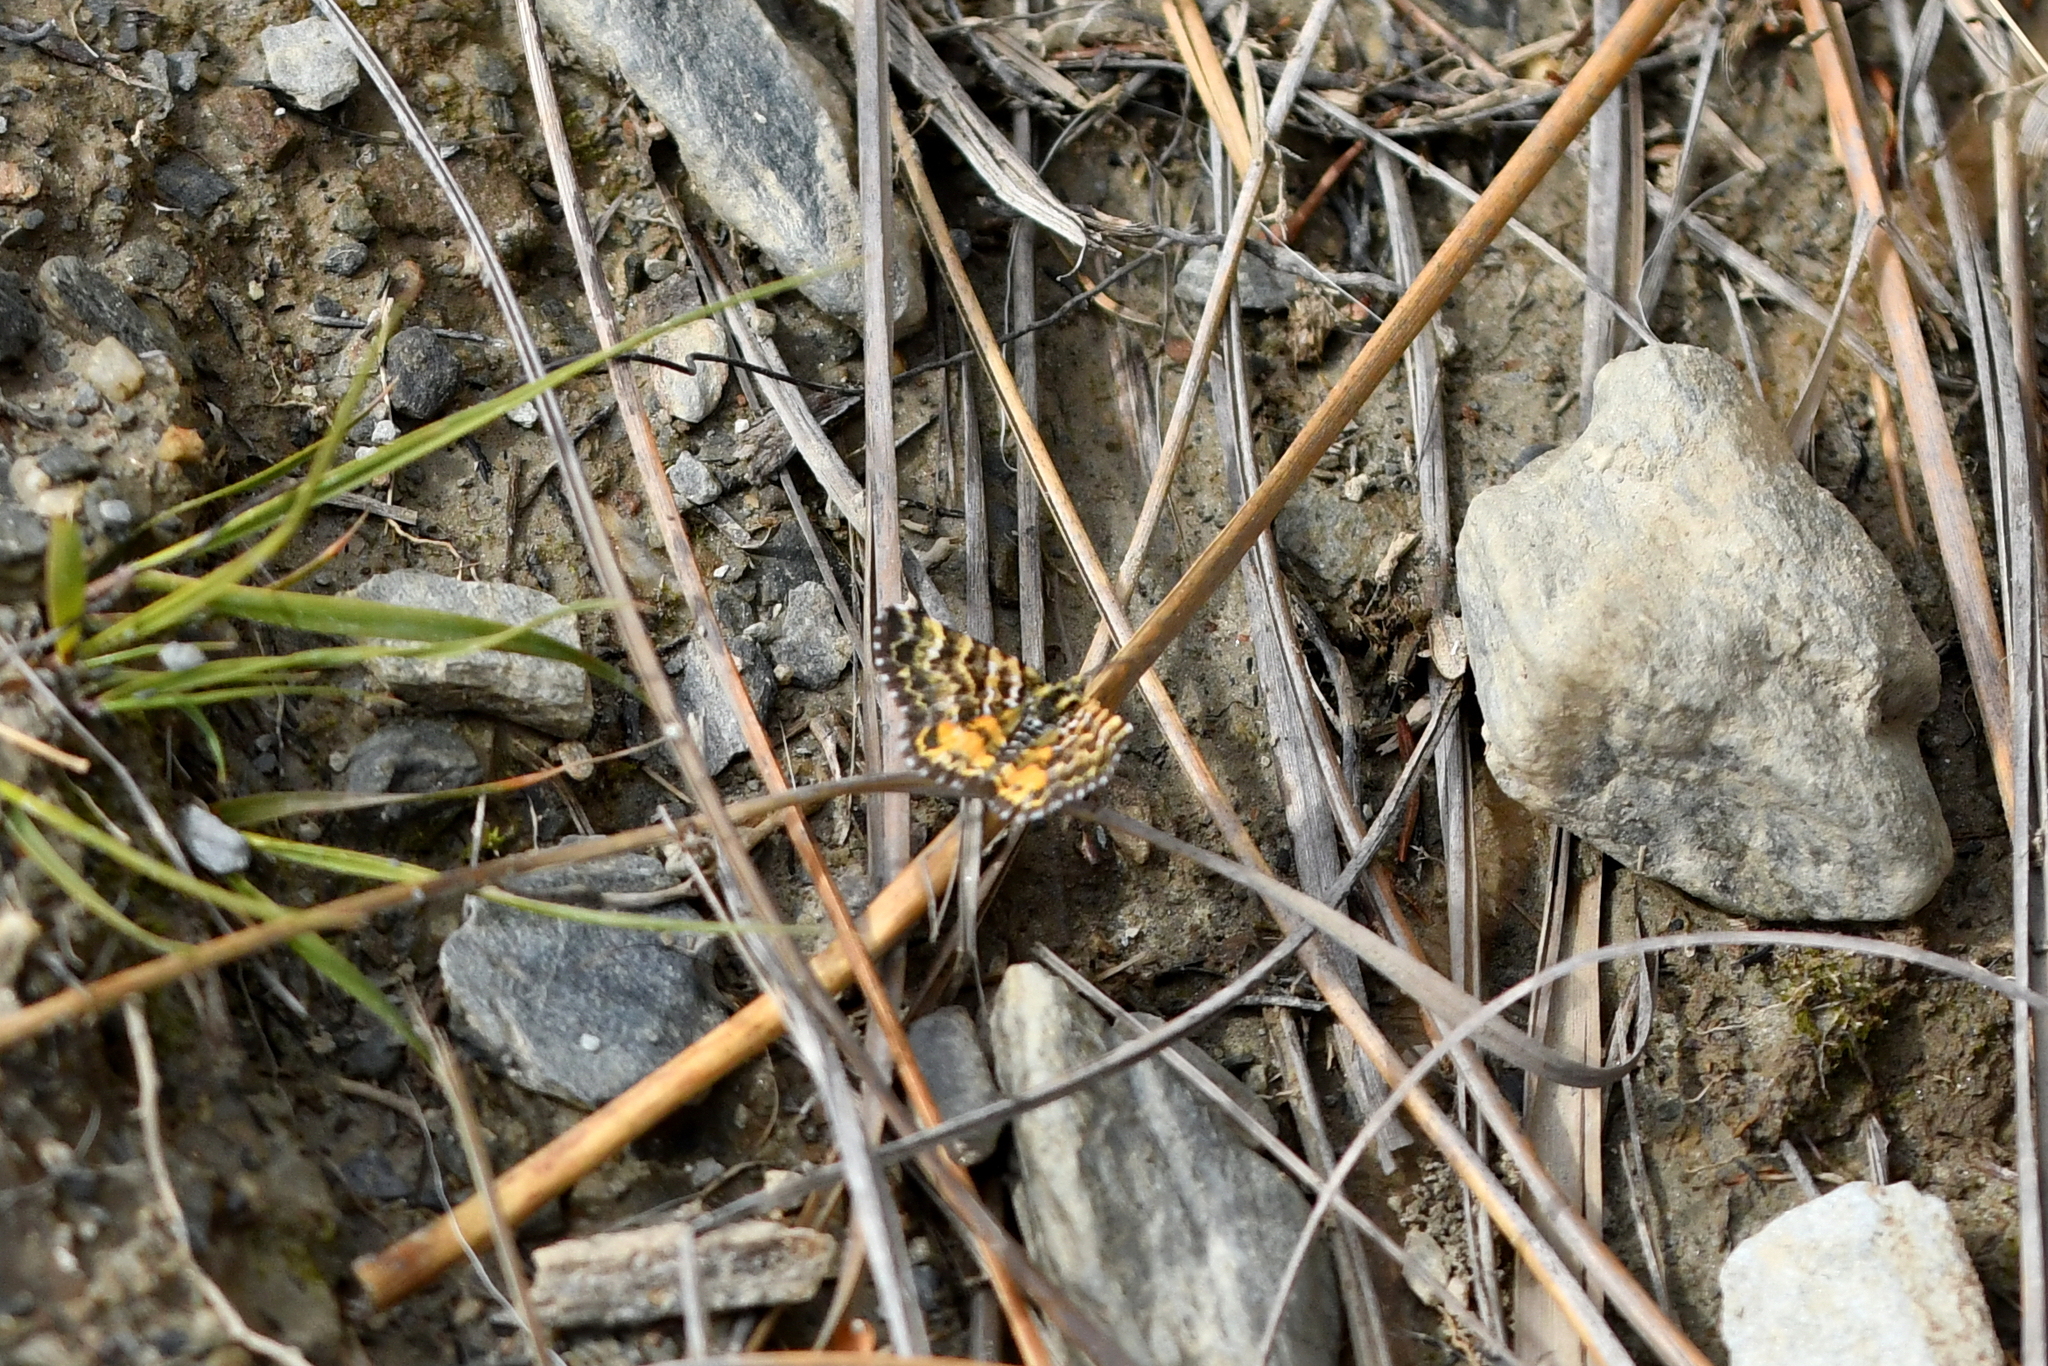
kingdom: Animalia
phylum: Arthropoda
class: Insecta
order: Lepidoptera
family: Geometridae
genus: Notoreas
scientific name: Notoreas
